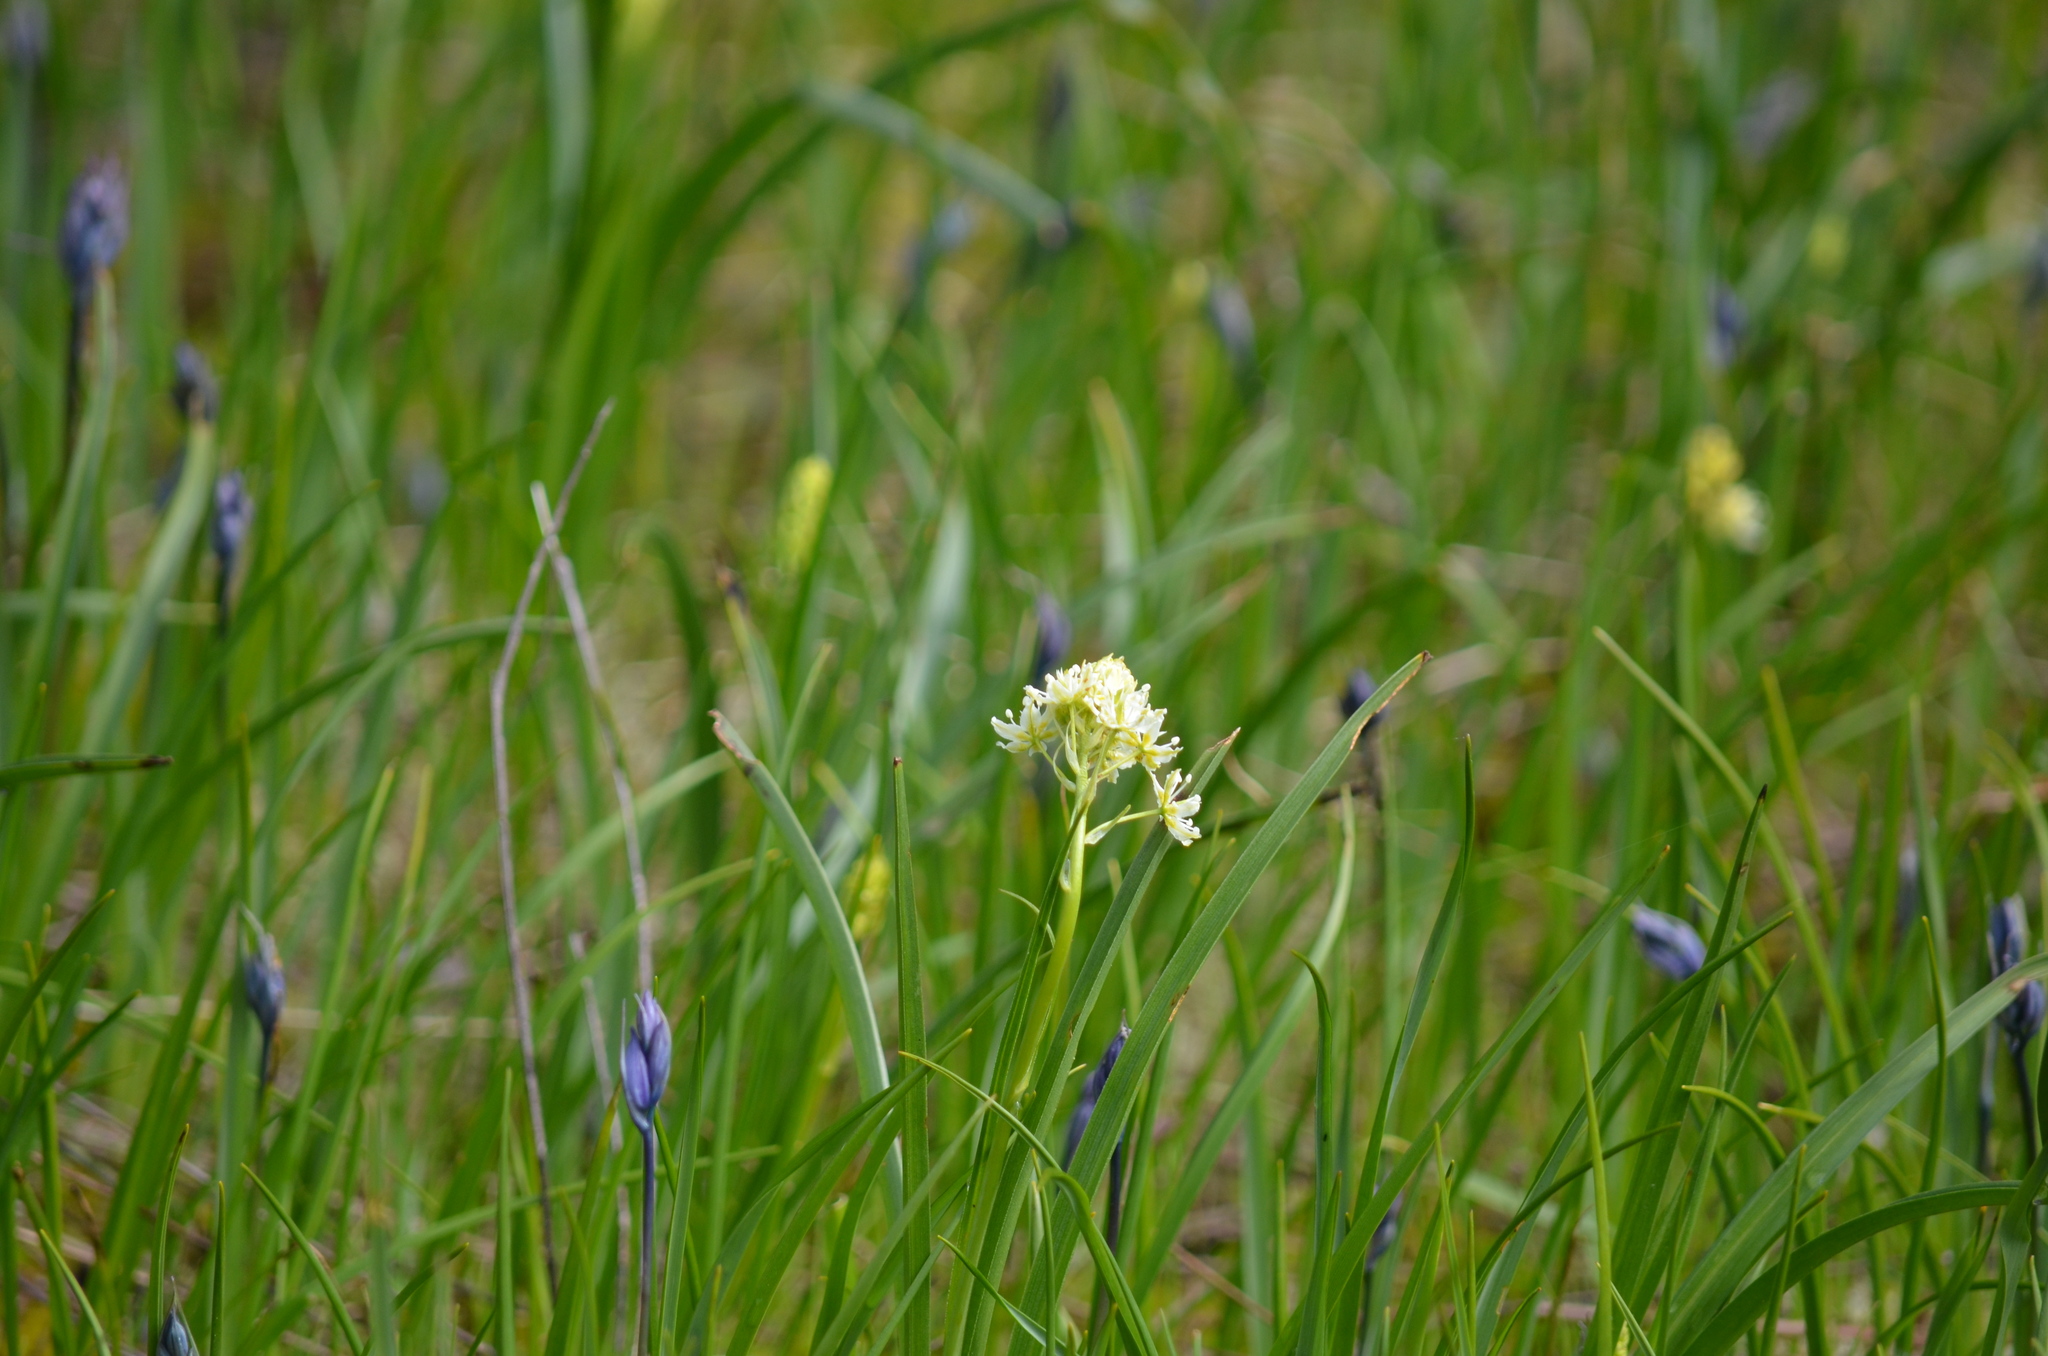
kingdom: Plantae
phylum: Tracheophyta
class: Liliopsida
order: Liliales
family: Melanthiaceae
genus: Toxicoscordion
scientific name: Toxicoscordion venenosum
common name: Meadow death camas
